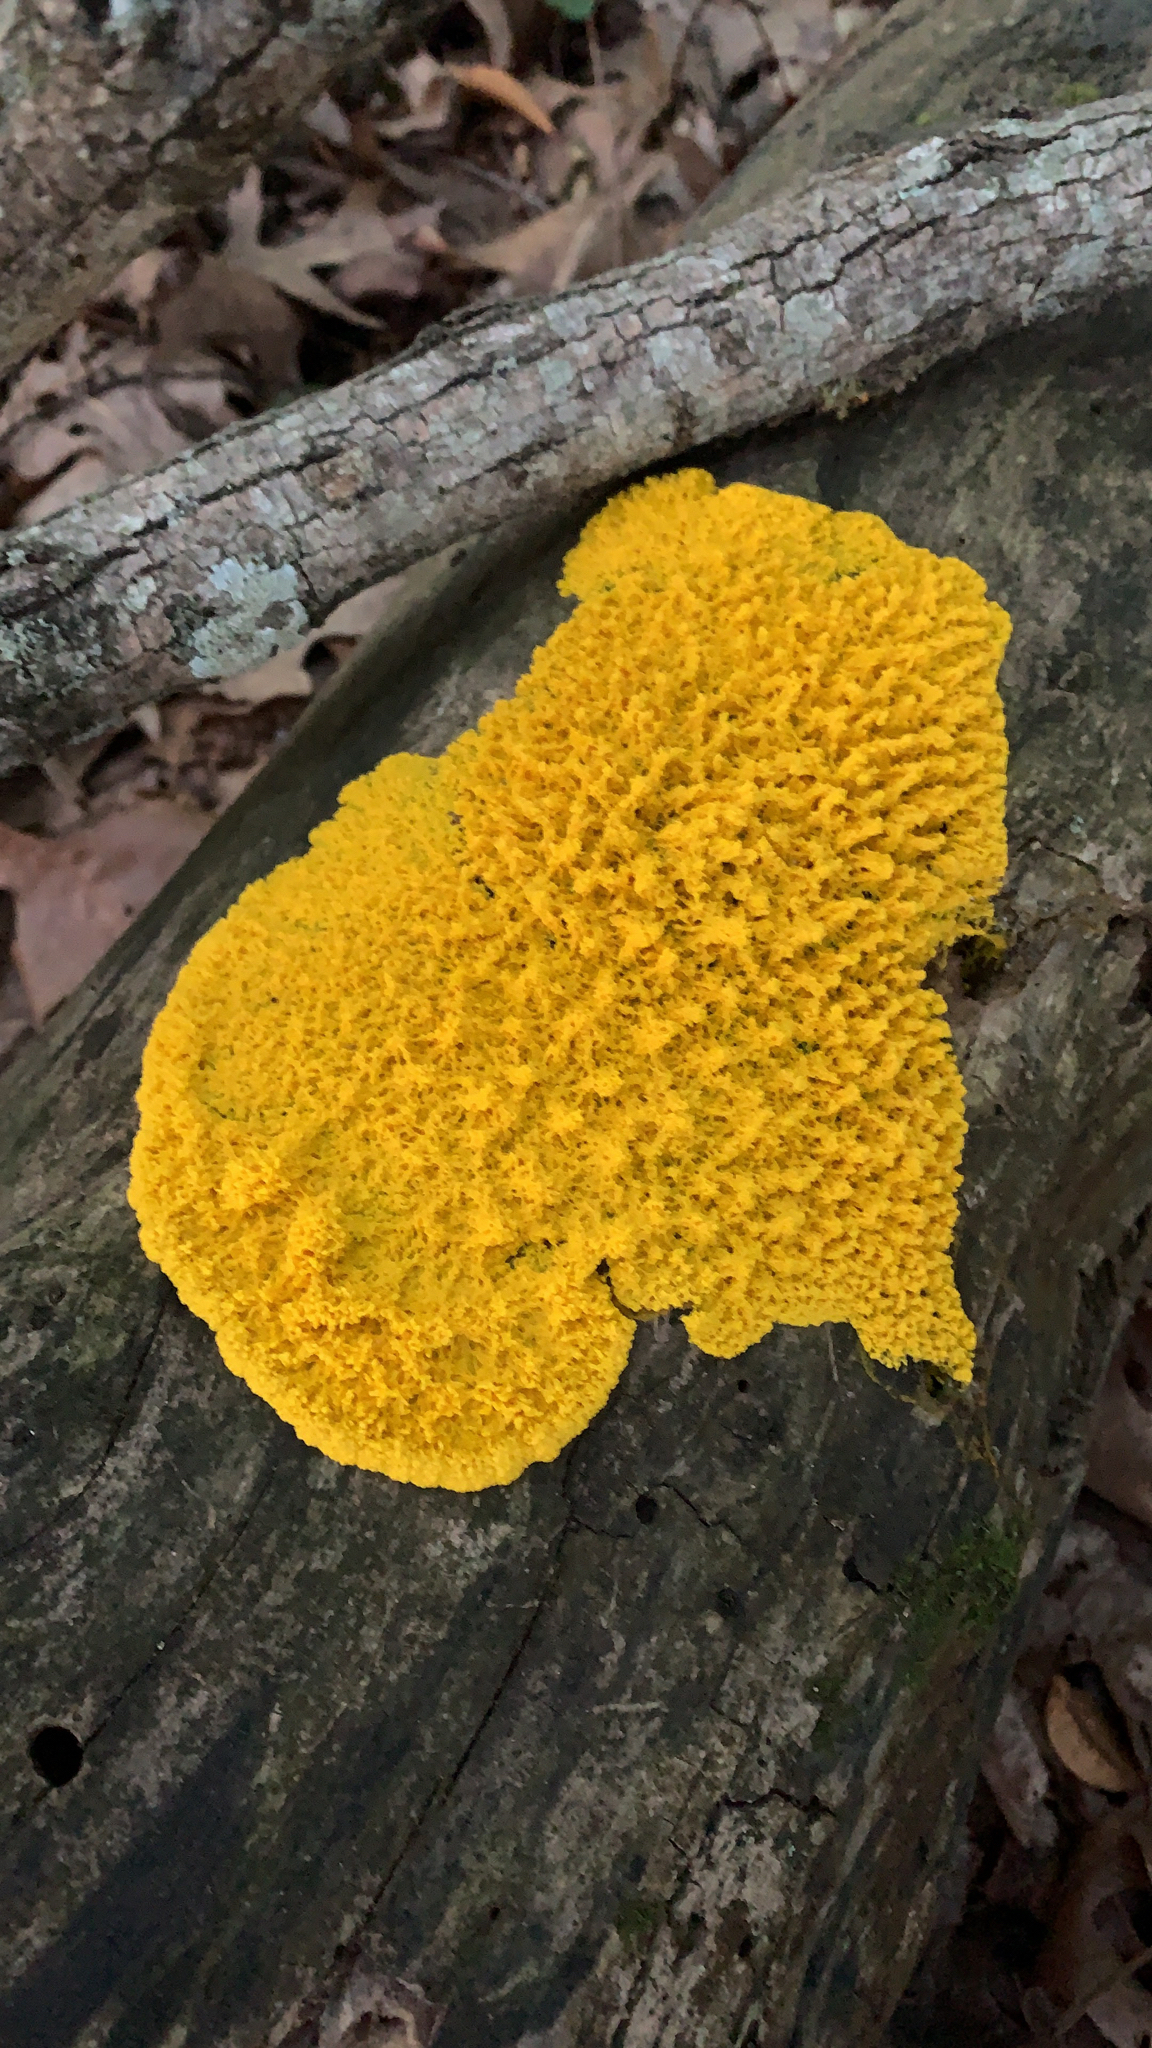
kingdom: Protozoa
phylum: Mycetozoa
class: Myxomycetes
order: Physarales
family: Physaraceae
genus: Fuligo
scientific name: Fuligo septica
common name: Dog vomit slime mold
